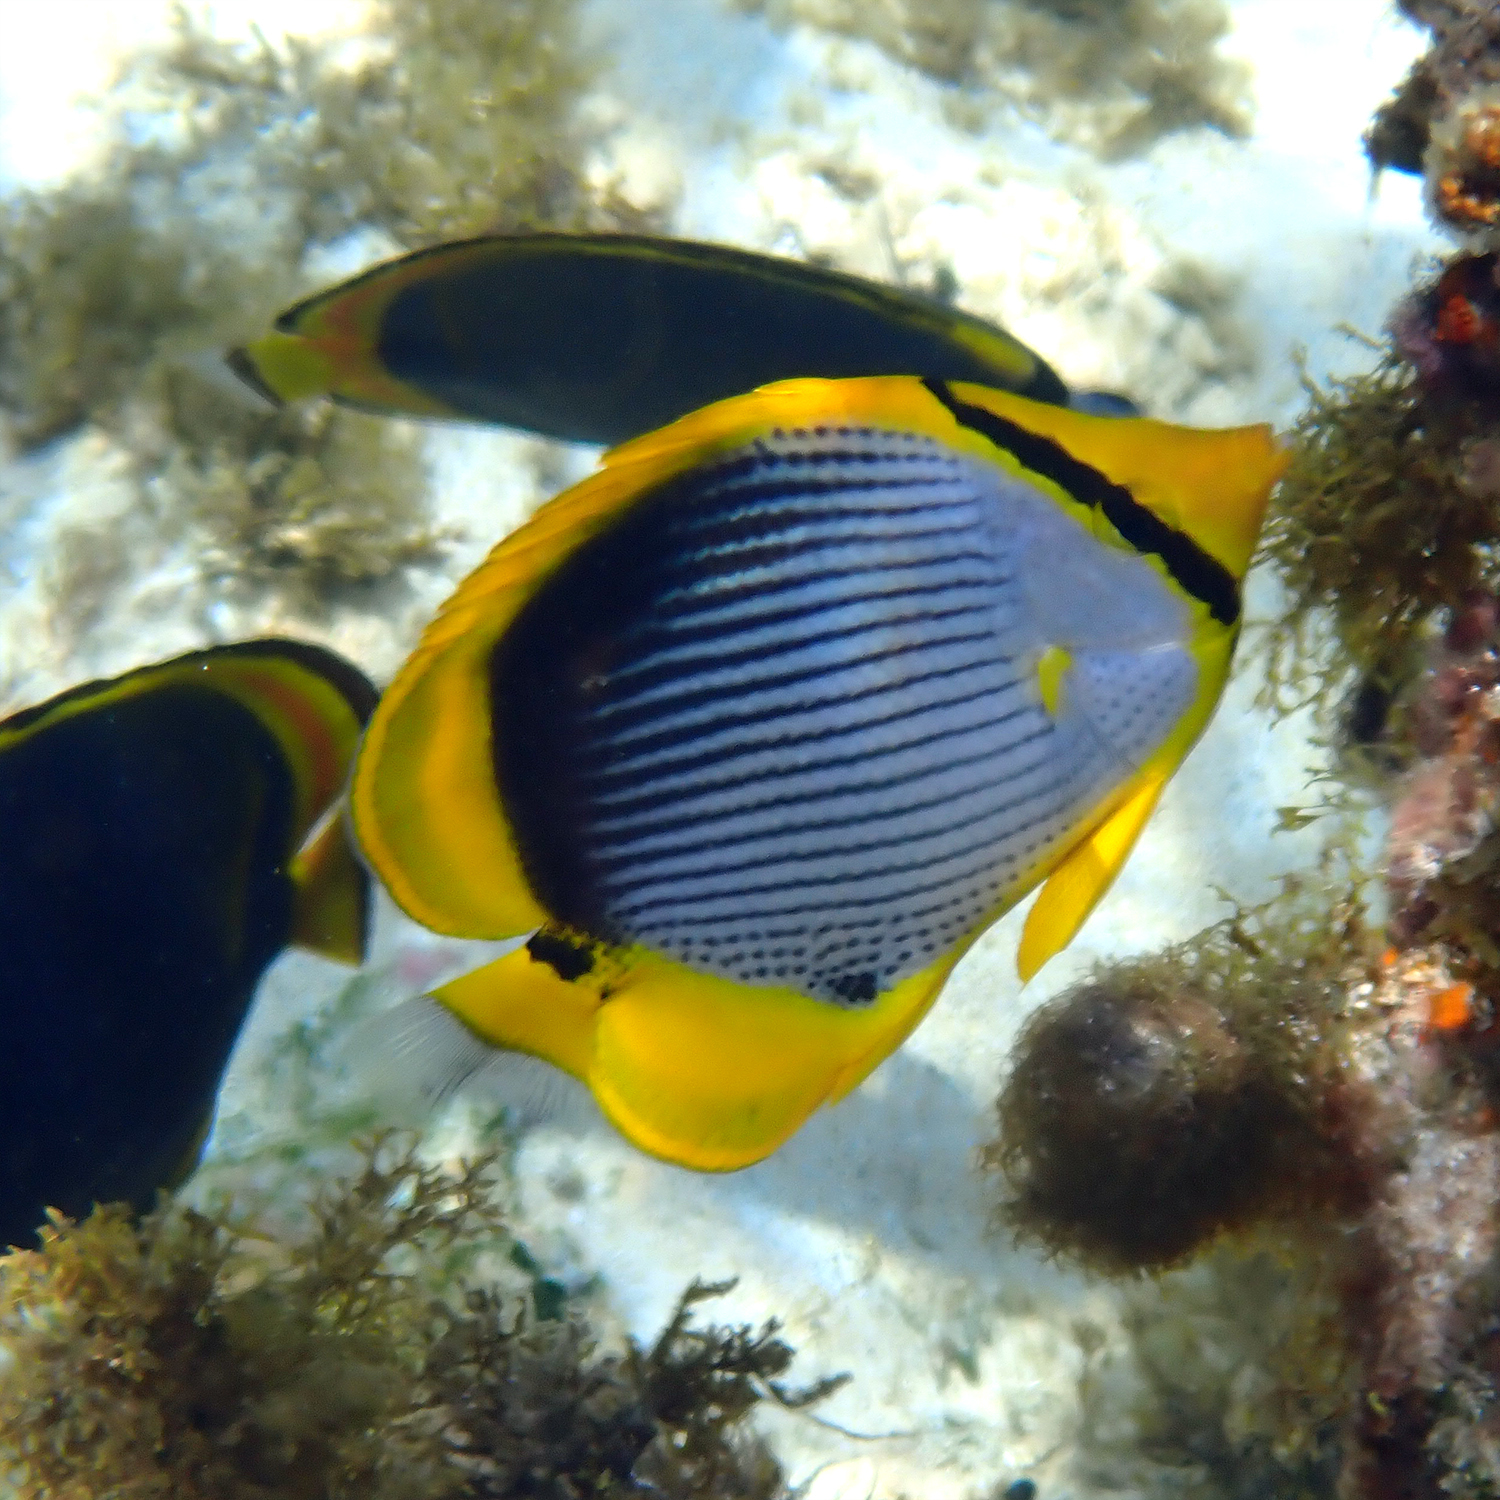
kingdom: Animalia
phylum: Chordata
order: Perciformes
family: Chaetodontidae
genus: Chaetodon
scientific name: Chaetodon melannotus
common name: Blackback butterflyfish
